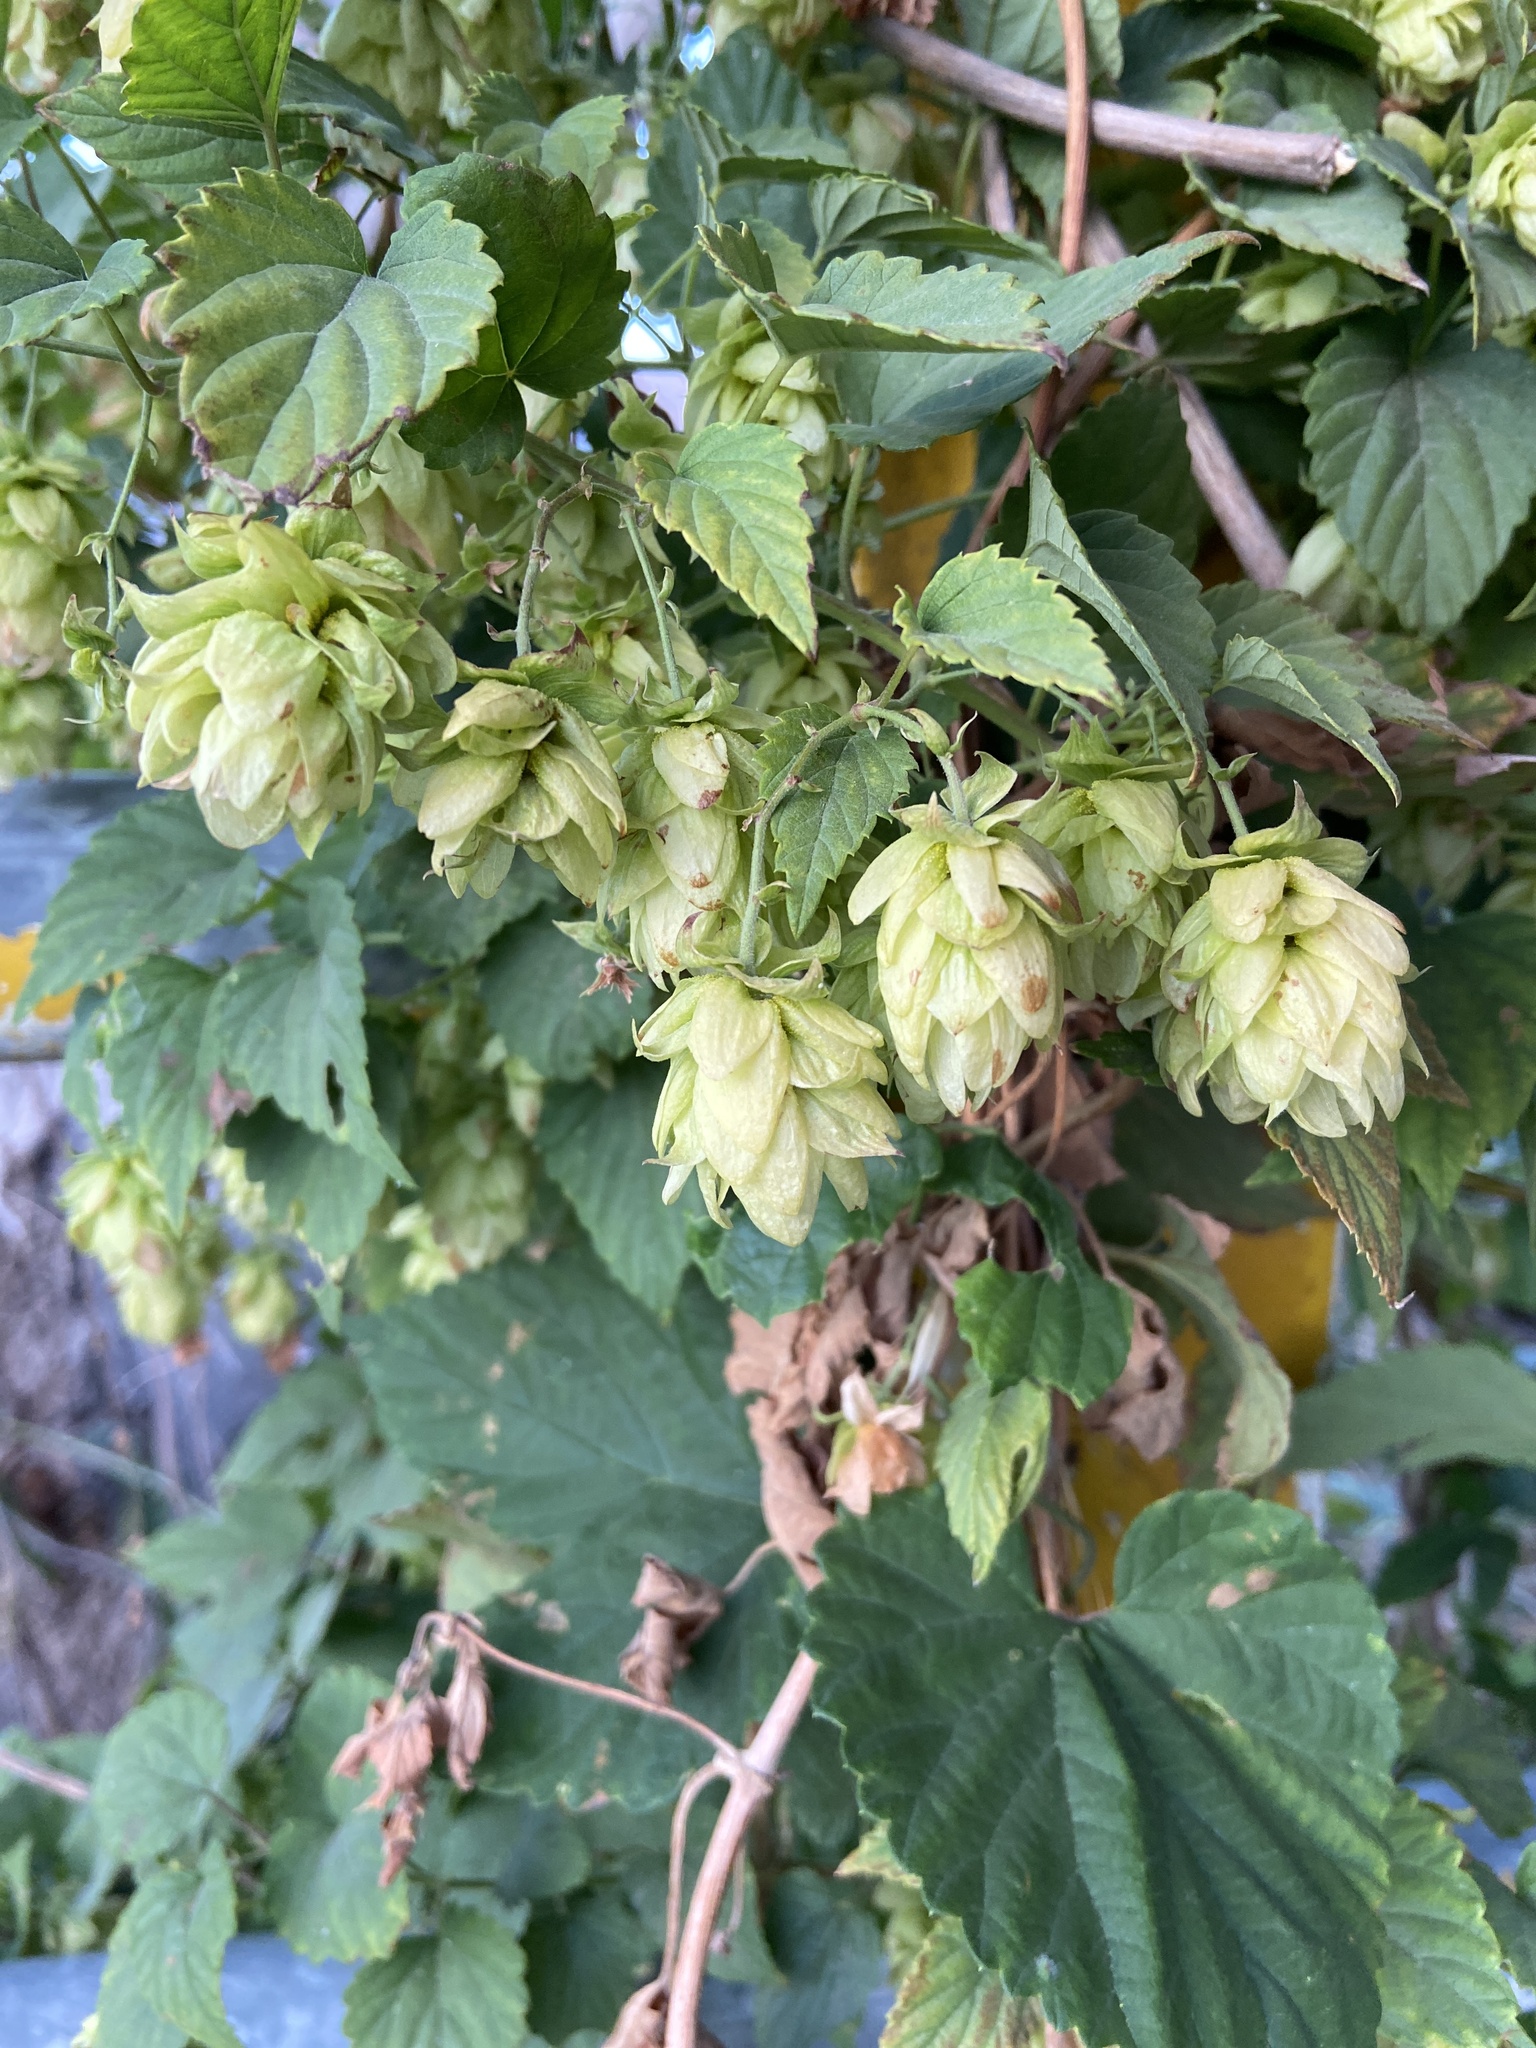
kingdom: Plantae
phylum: Tracheophyta
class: Magnoliopsida
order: Rosales
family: Cannabaceae
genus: Humulus
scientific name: Humulus lupulus
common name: Hop
